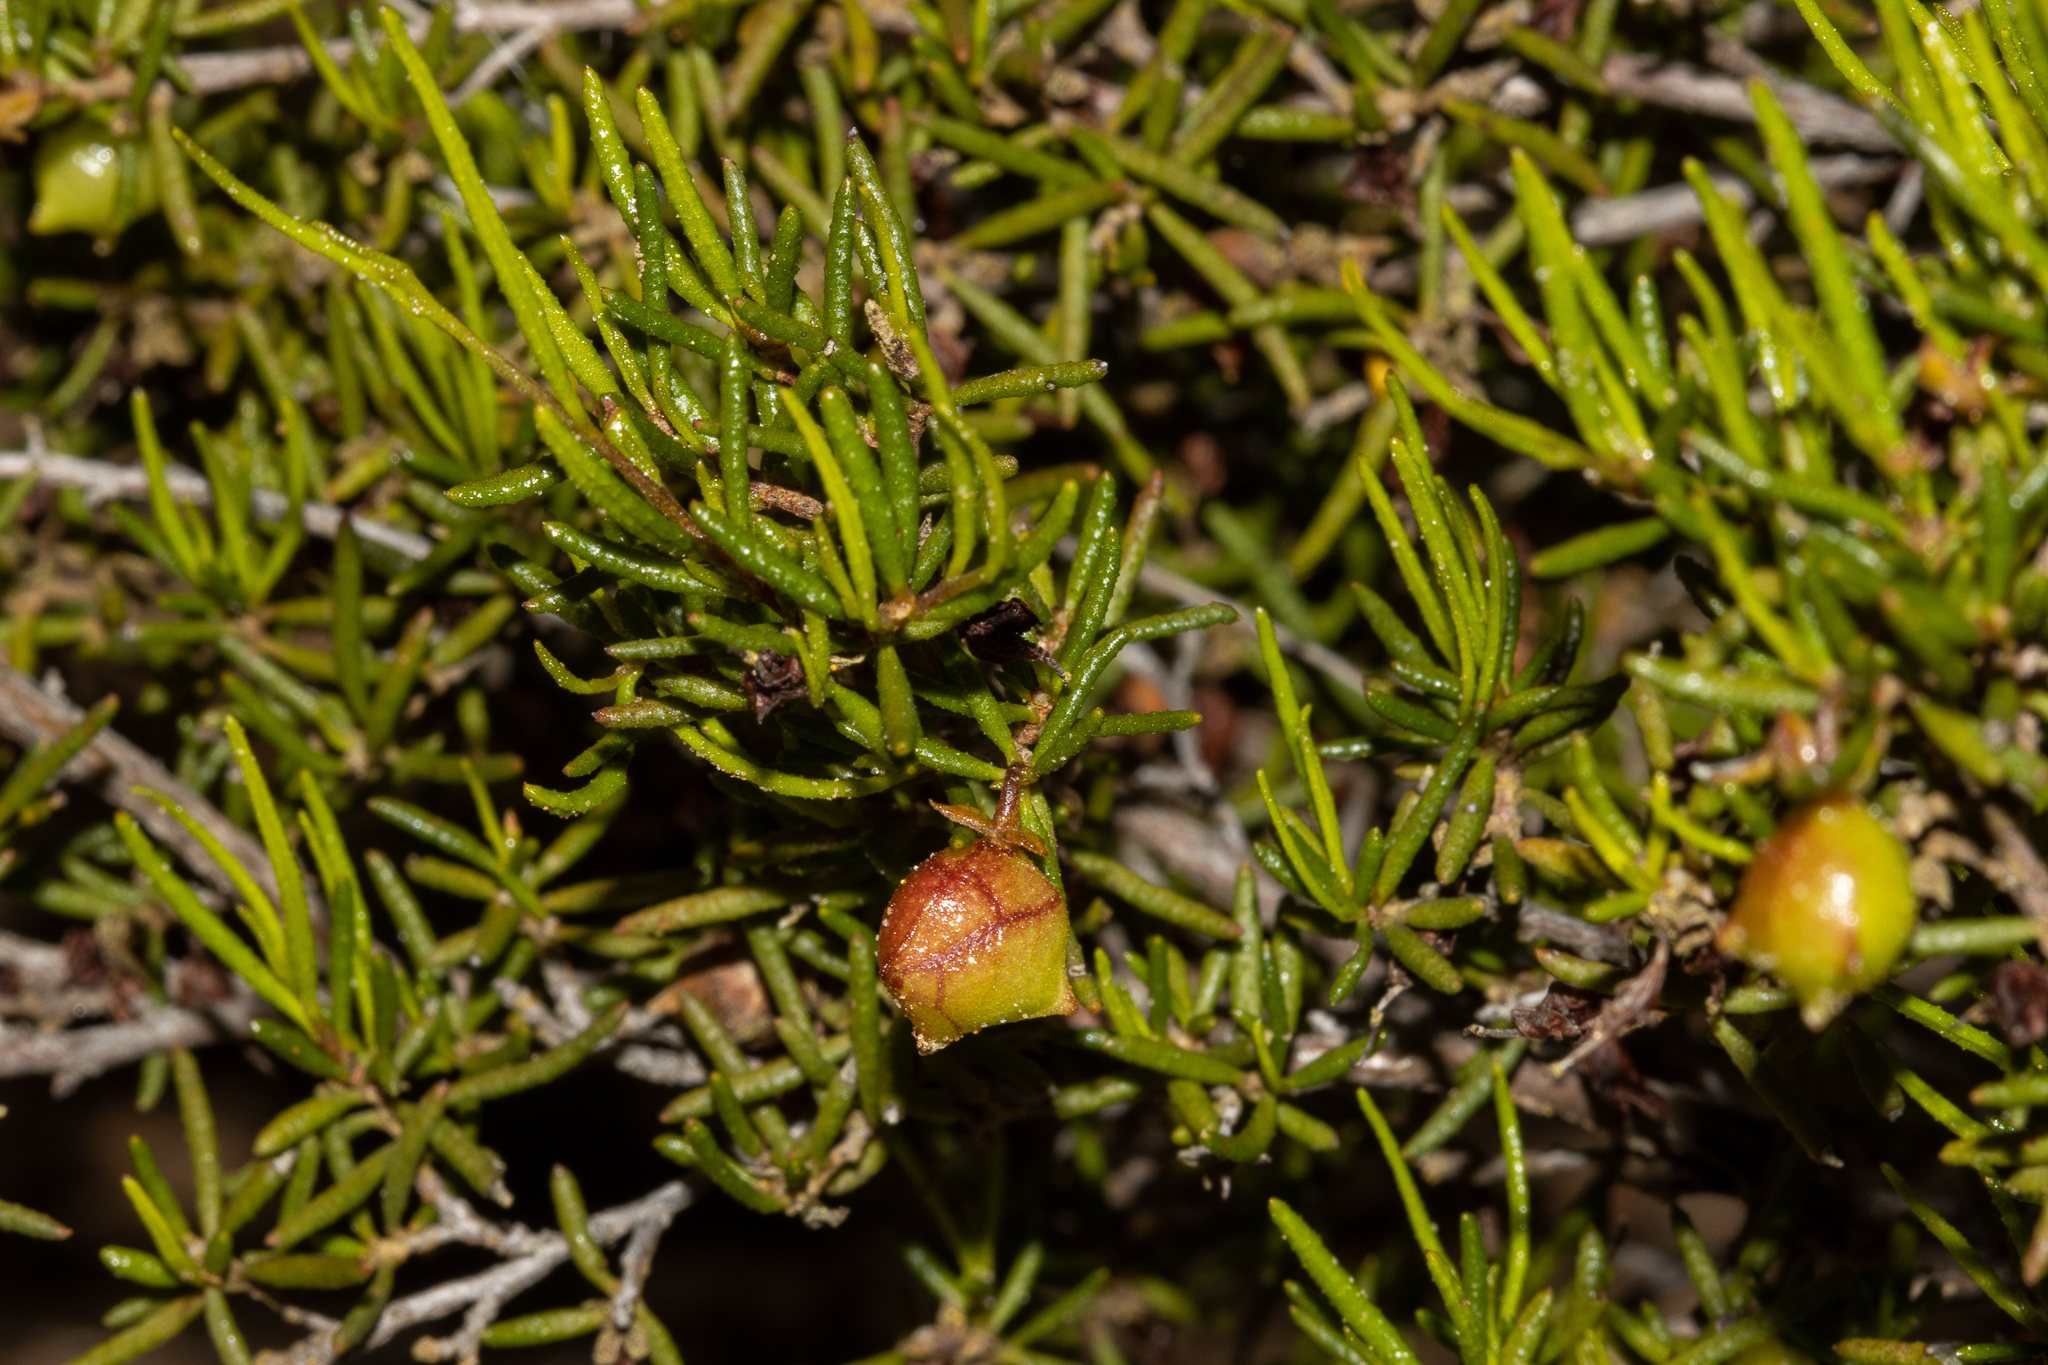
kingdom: Plantae
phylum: Tracheophyta
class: Magnoliopsida
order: Sapindales
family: Sapindaceae
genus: Dodonaea
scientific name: Dodonaea hexandra
